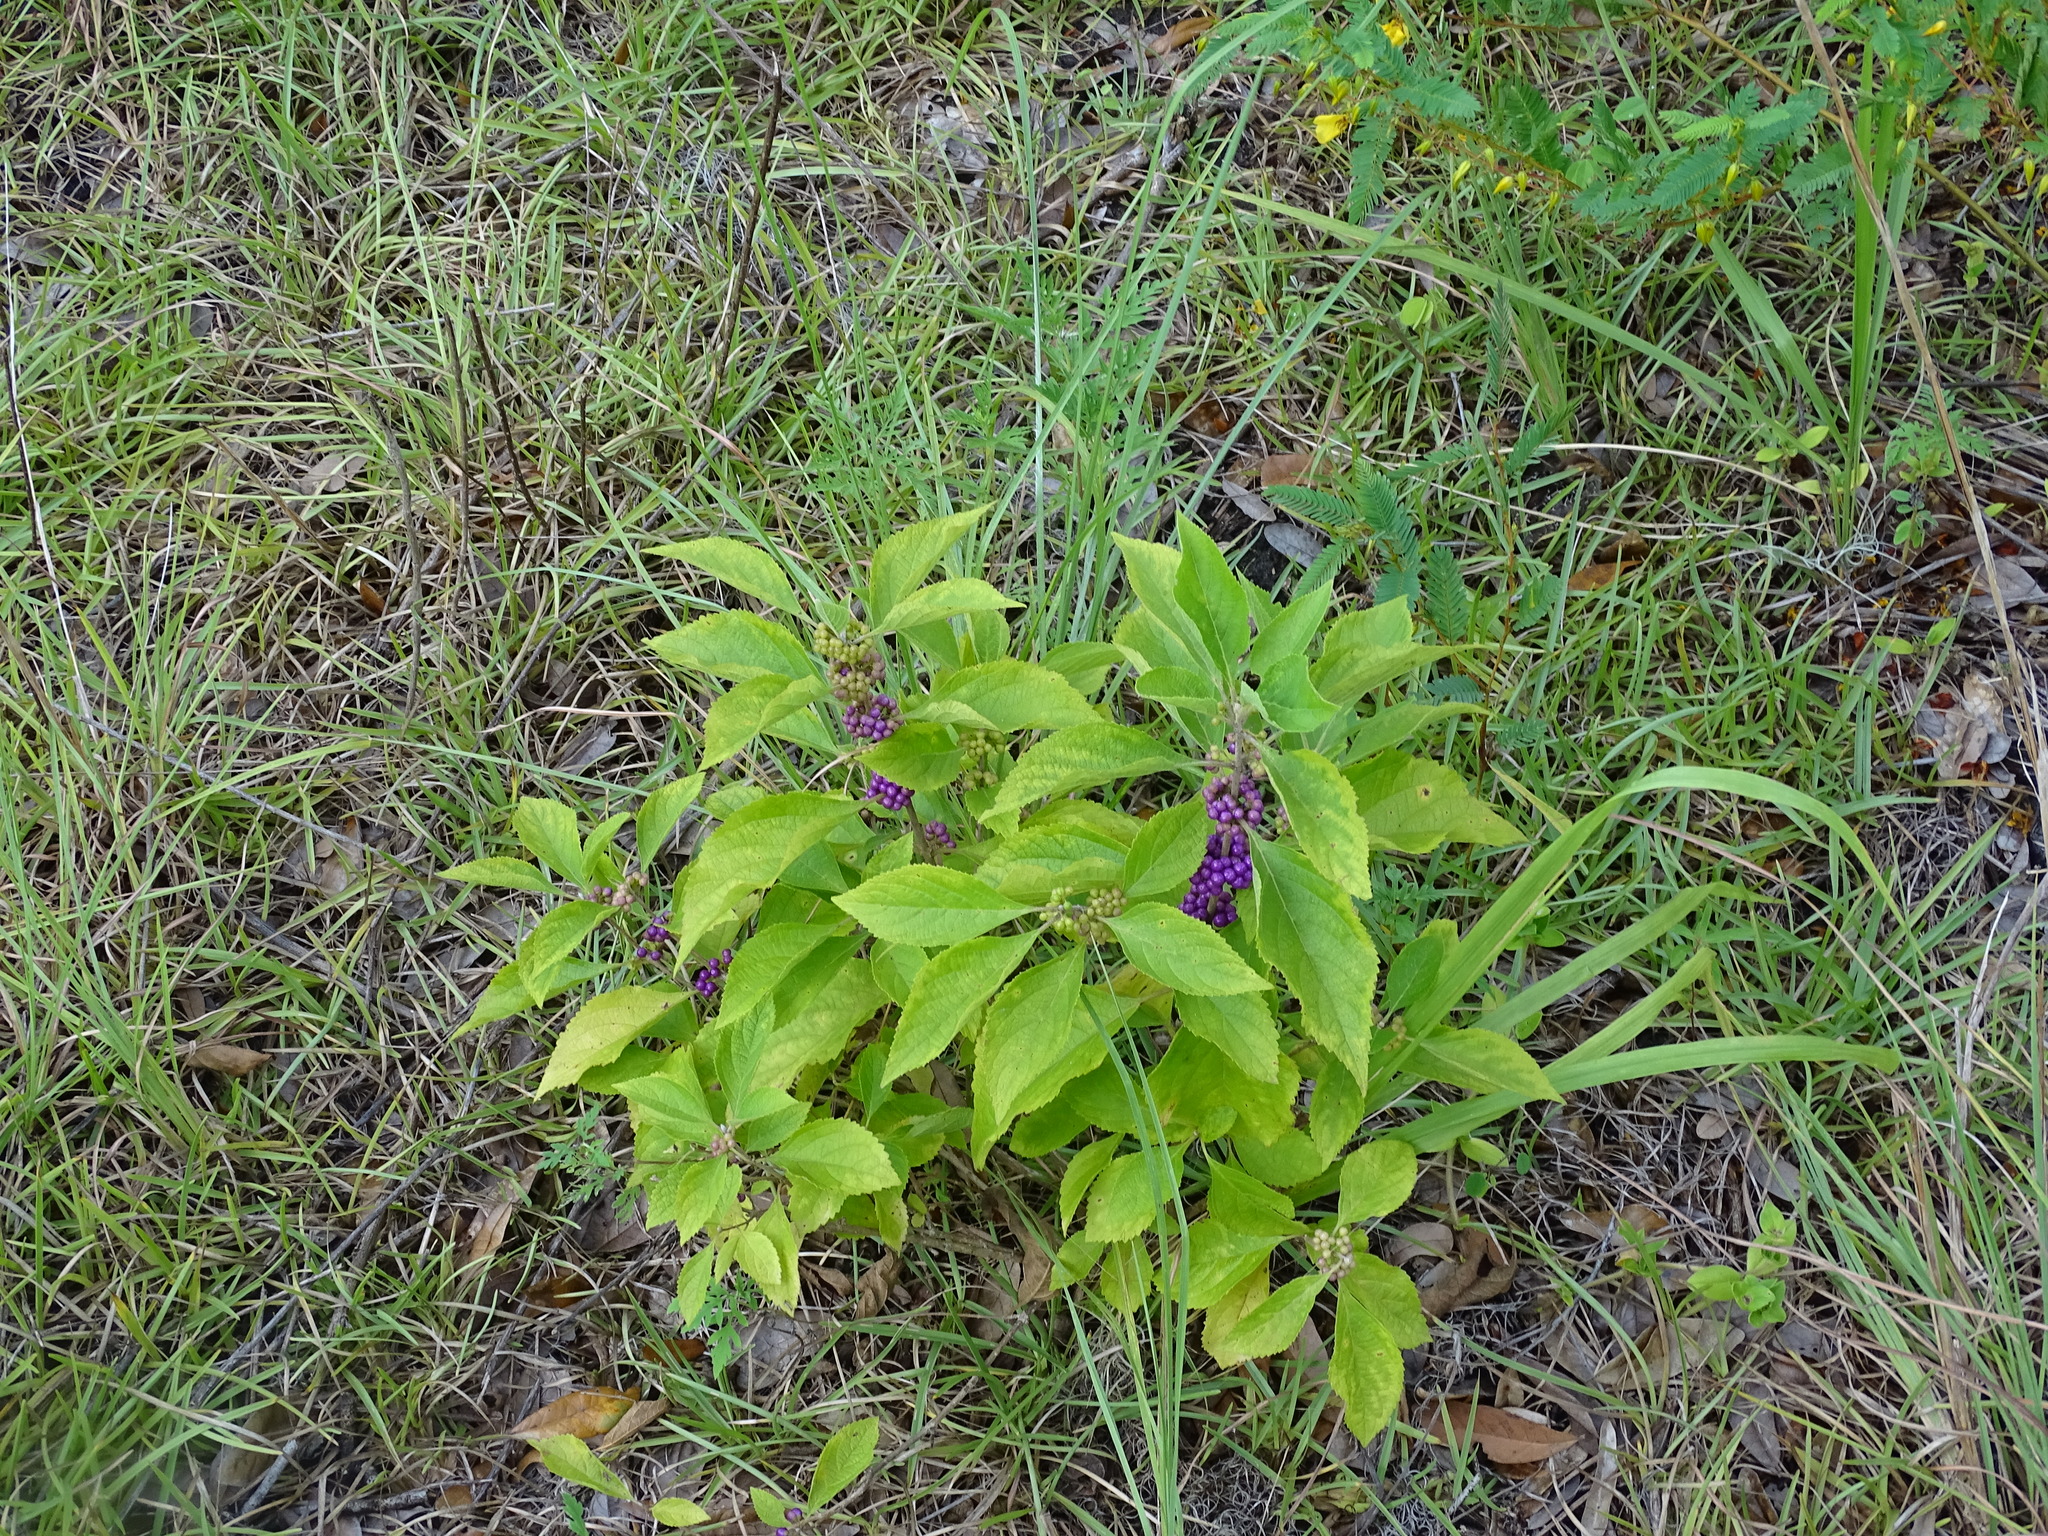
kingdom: Plantae
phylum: Tracheophyta
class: Magnoliopsida
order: Lamiales
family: Lamiaceae
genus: Callicarpa
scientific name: Callicarpa americana
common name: American beautyberry
